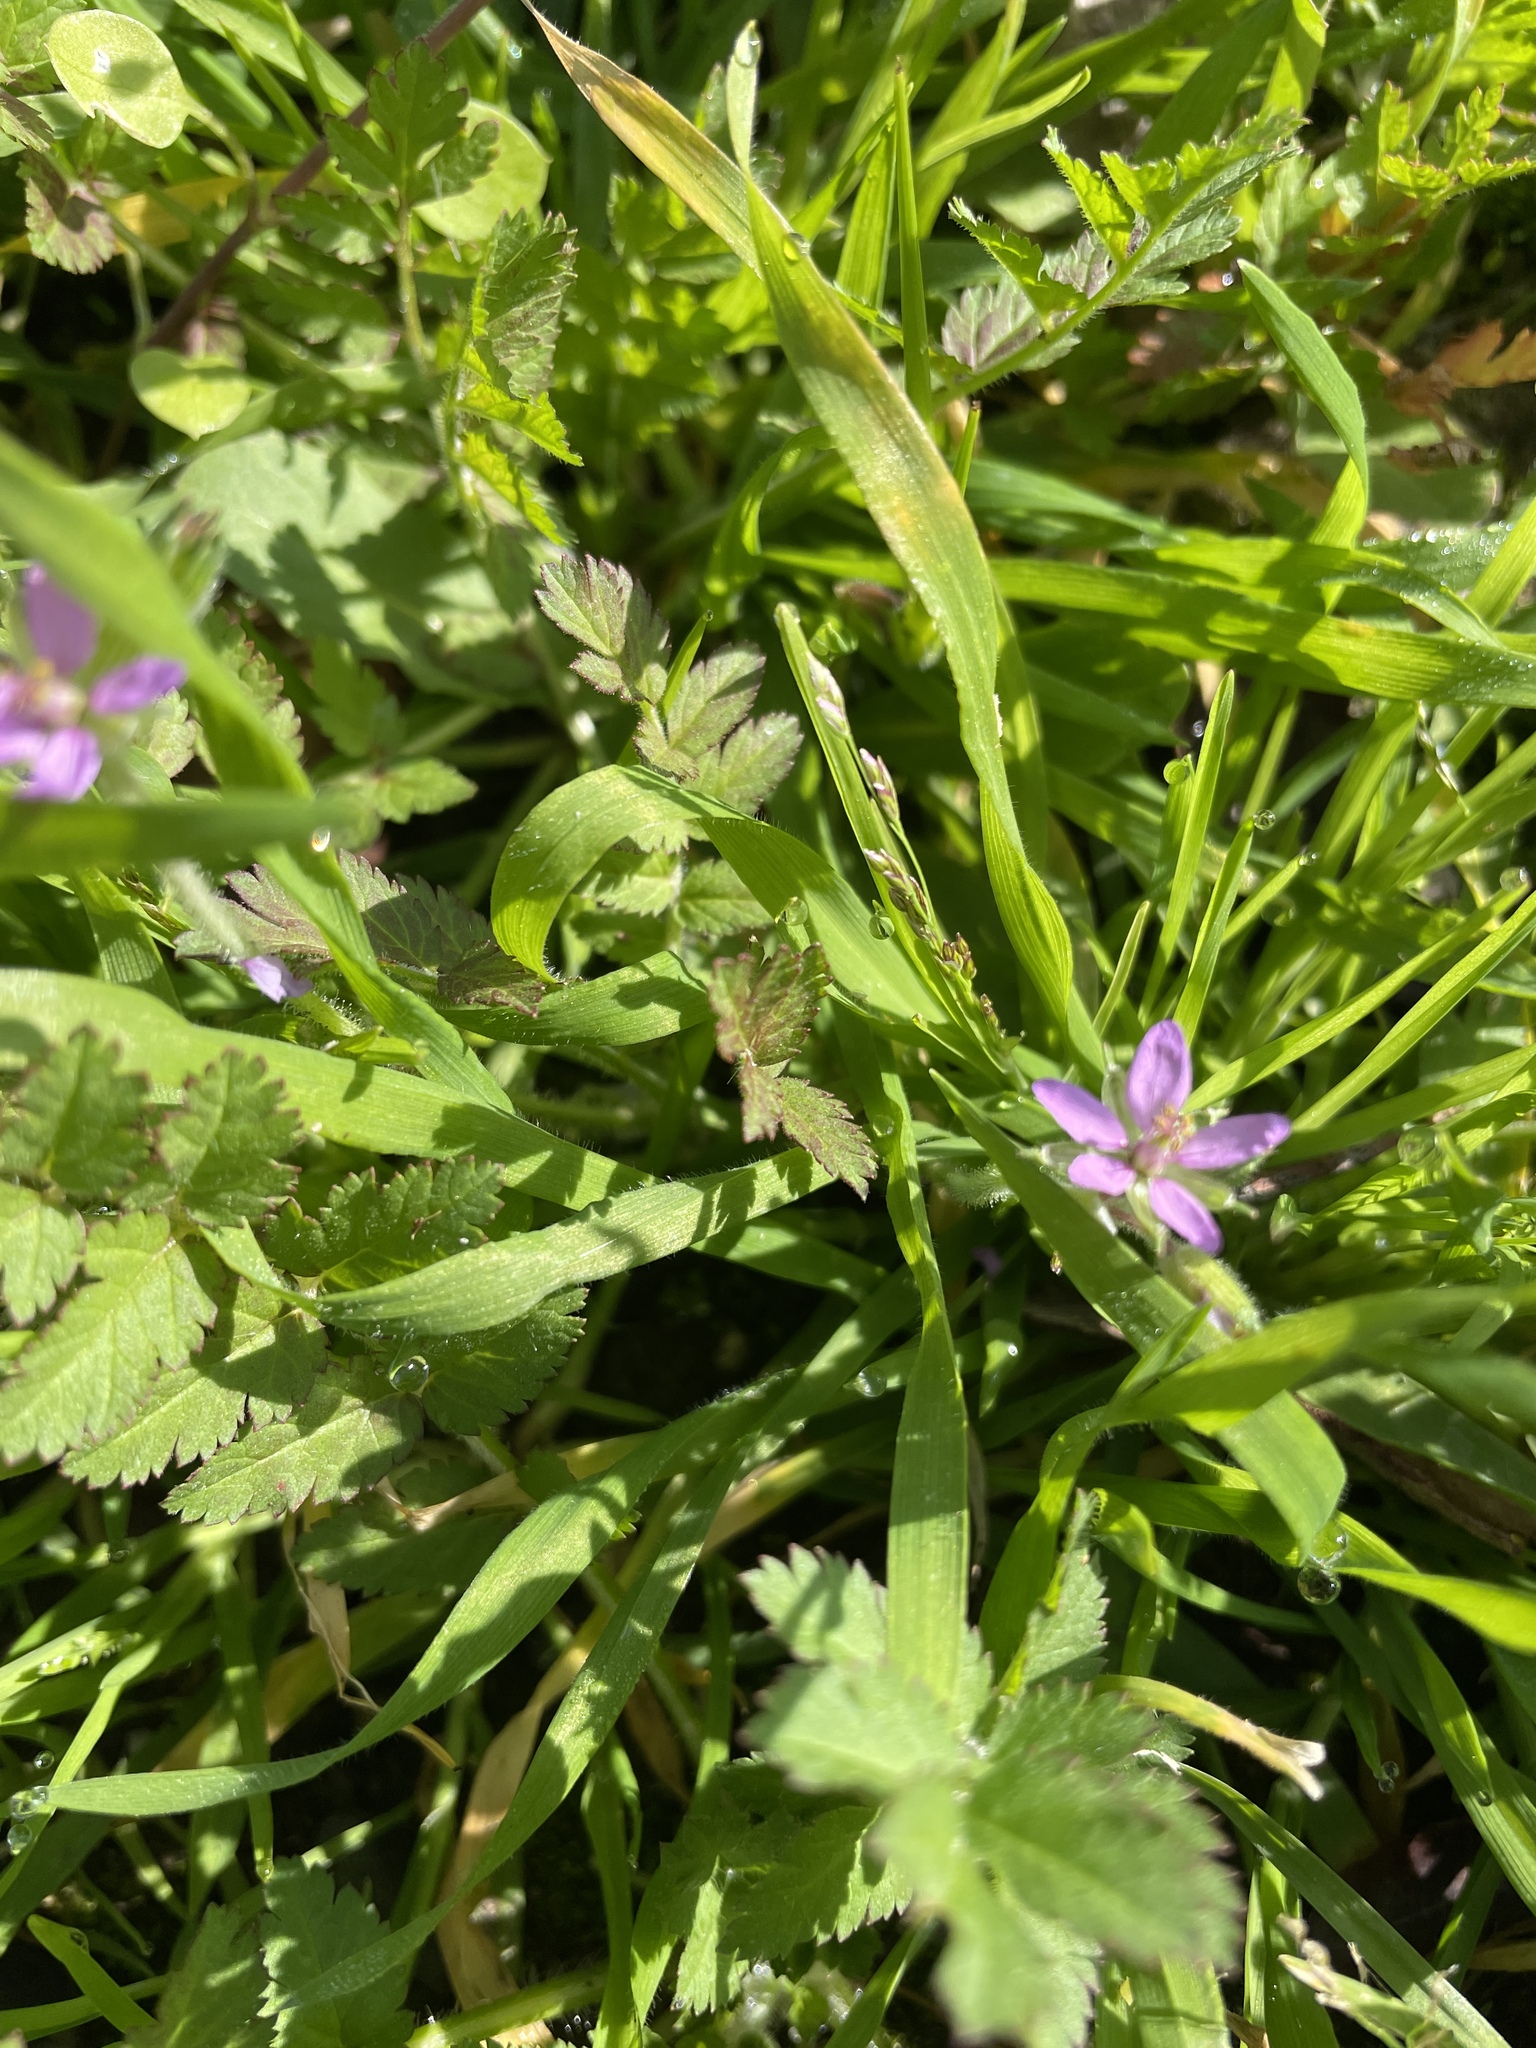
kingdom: Plantae
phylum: Tracheophyta
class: Magnoliopsida
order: Geraniales
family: Geraniaceae
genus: Erodium
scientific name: Erodium moschatum
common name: Musk stork's-bill
